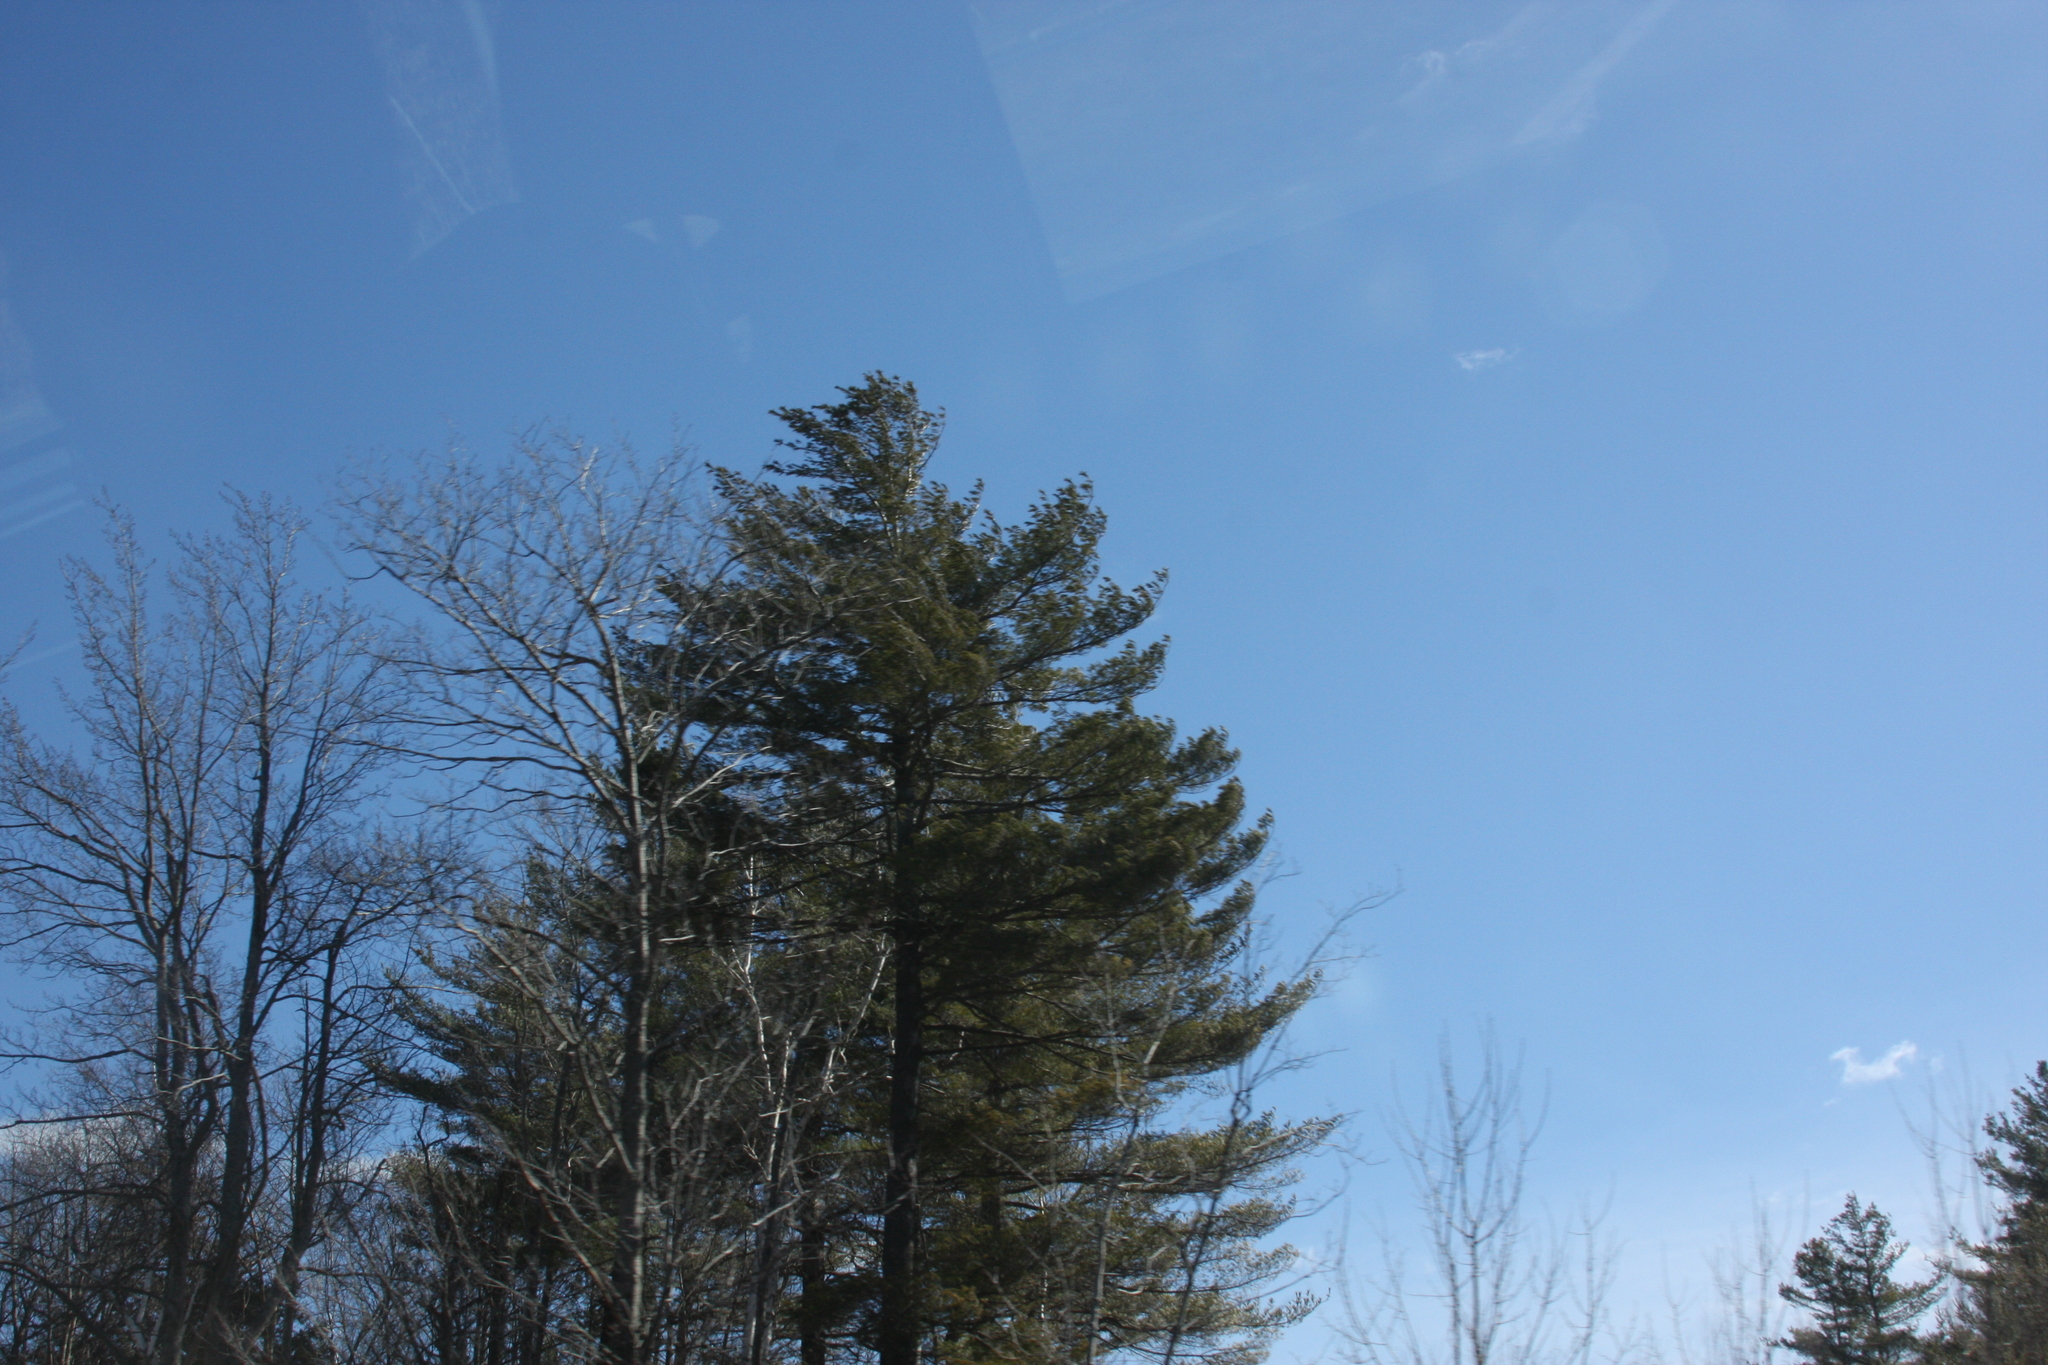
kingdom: Plantae
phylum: Tracheophyta
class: Pinopsida
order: Pinales
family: Pinaceae
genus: Pinus
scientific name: Pinus strobus
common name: Weymouth pine
